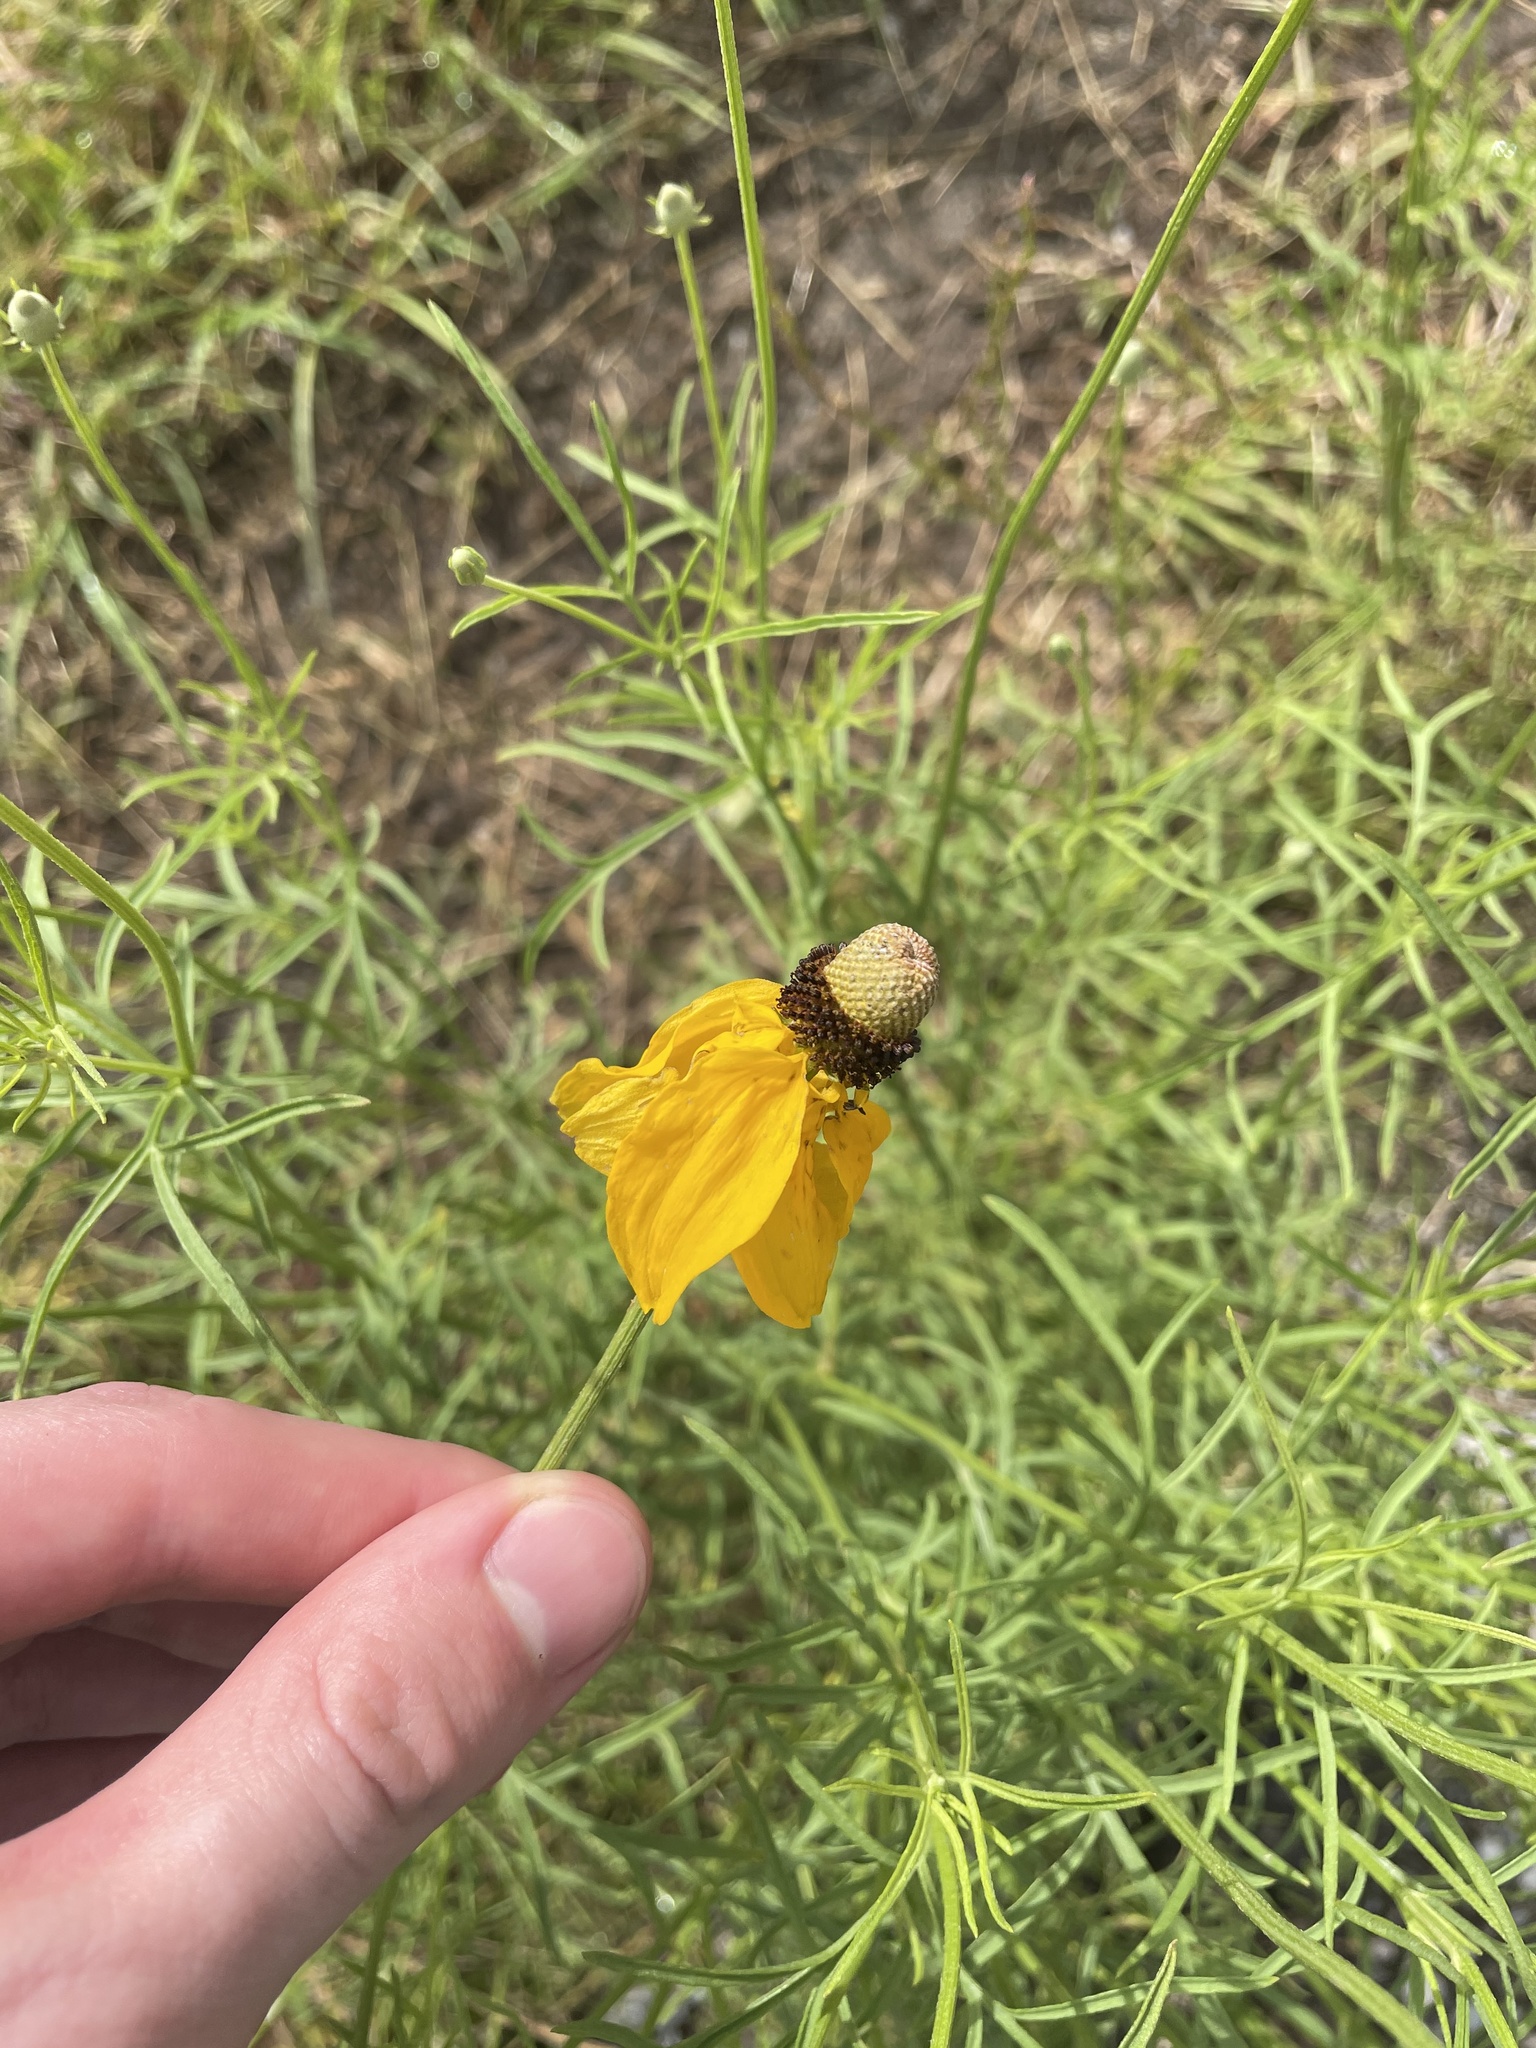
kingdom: Plantae
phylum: Tracheophyta
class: Magnoliopsida
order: Asterales
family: Asteraceae
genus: Ratibida
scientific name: Ratibida columnifera
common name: Prairie coneflower
